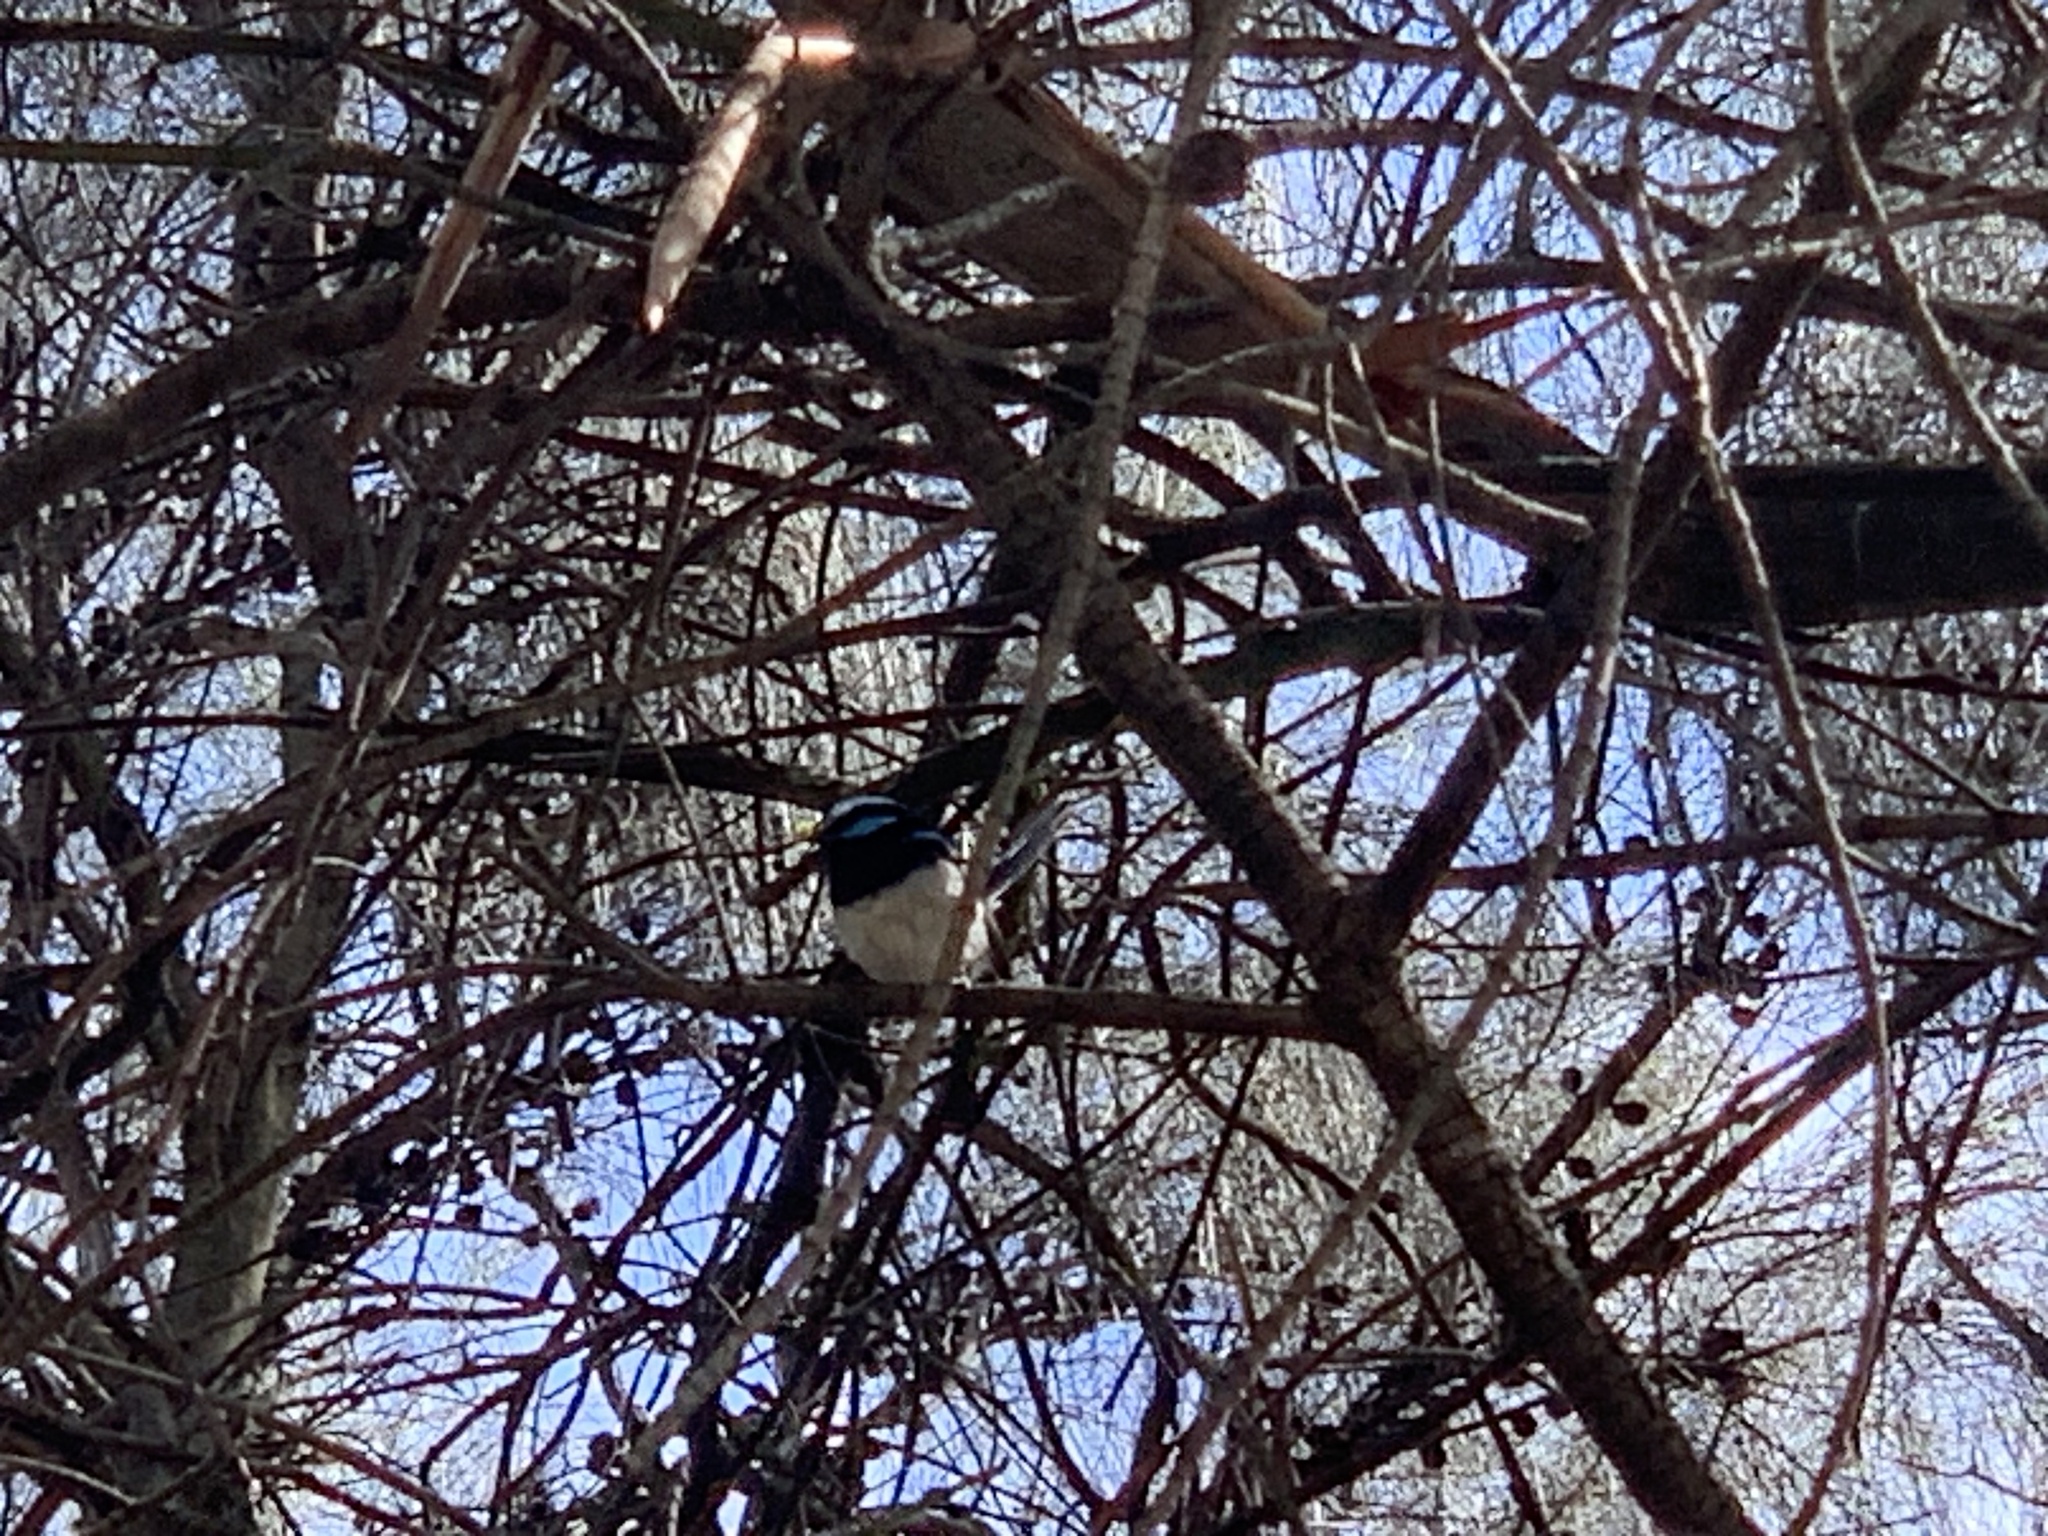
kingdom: Animalia
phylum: Chordata
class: Aves
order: Passeriformes
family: Maluridae
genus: Malurus
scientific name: Malurus cyaneus
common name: Superb fairywren
